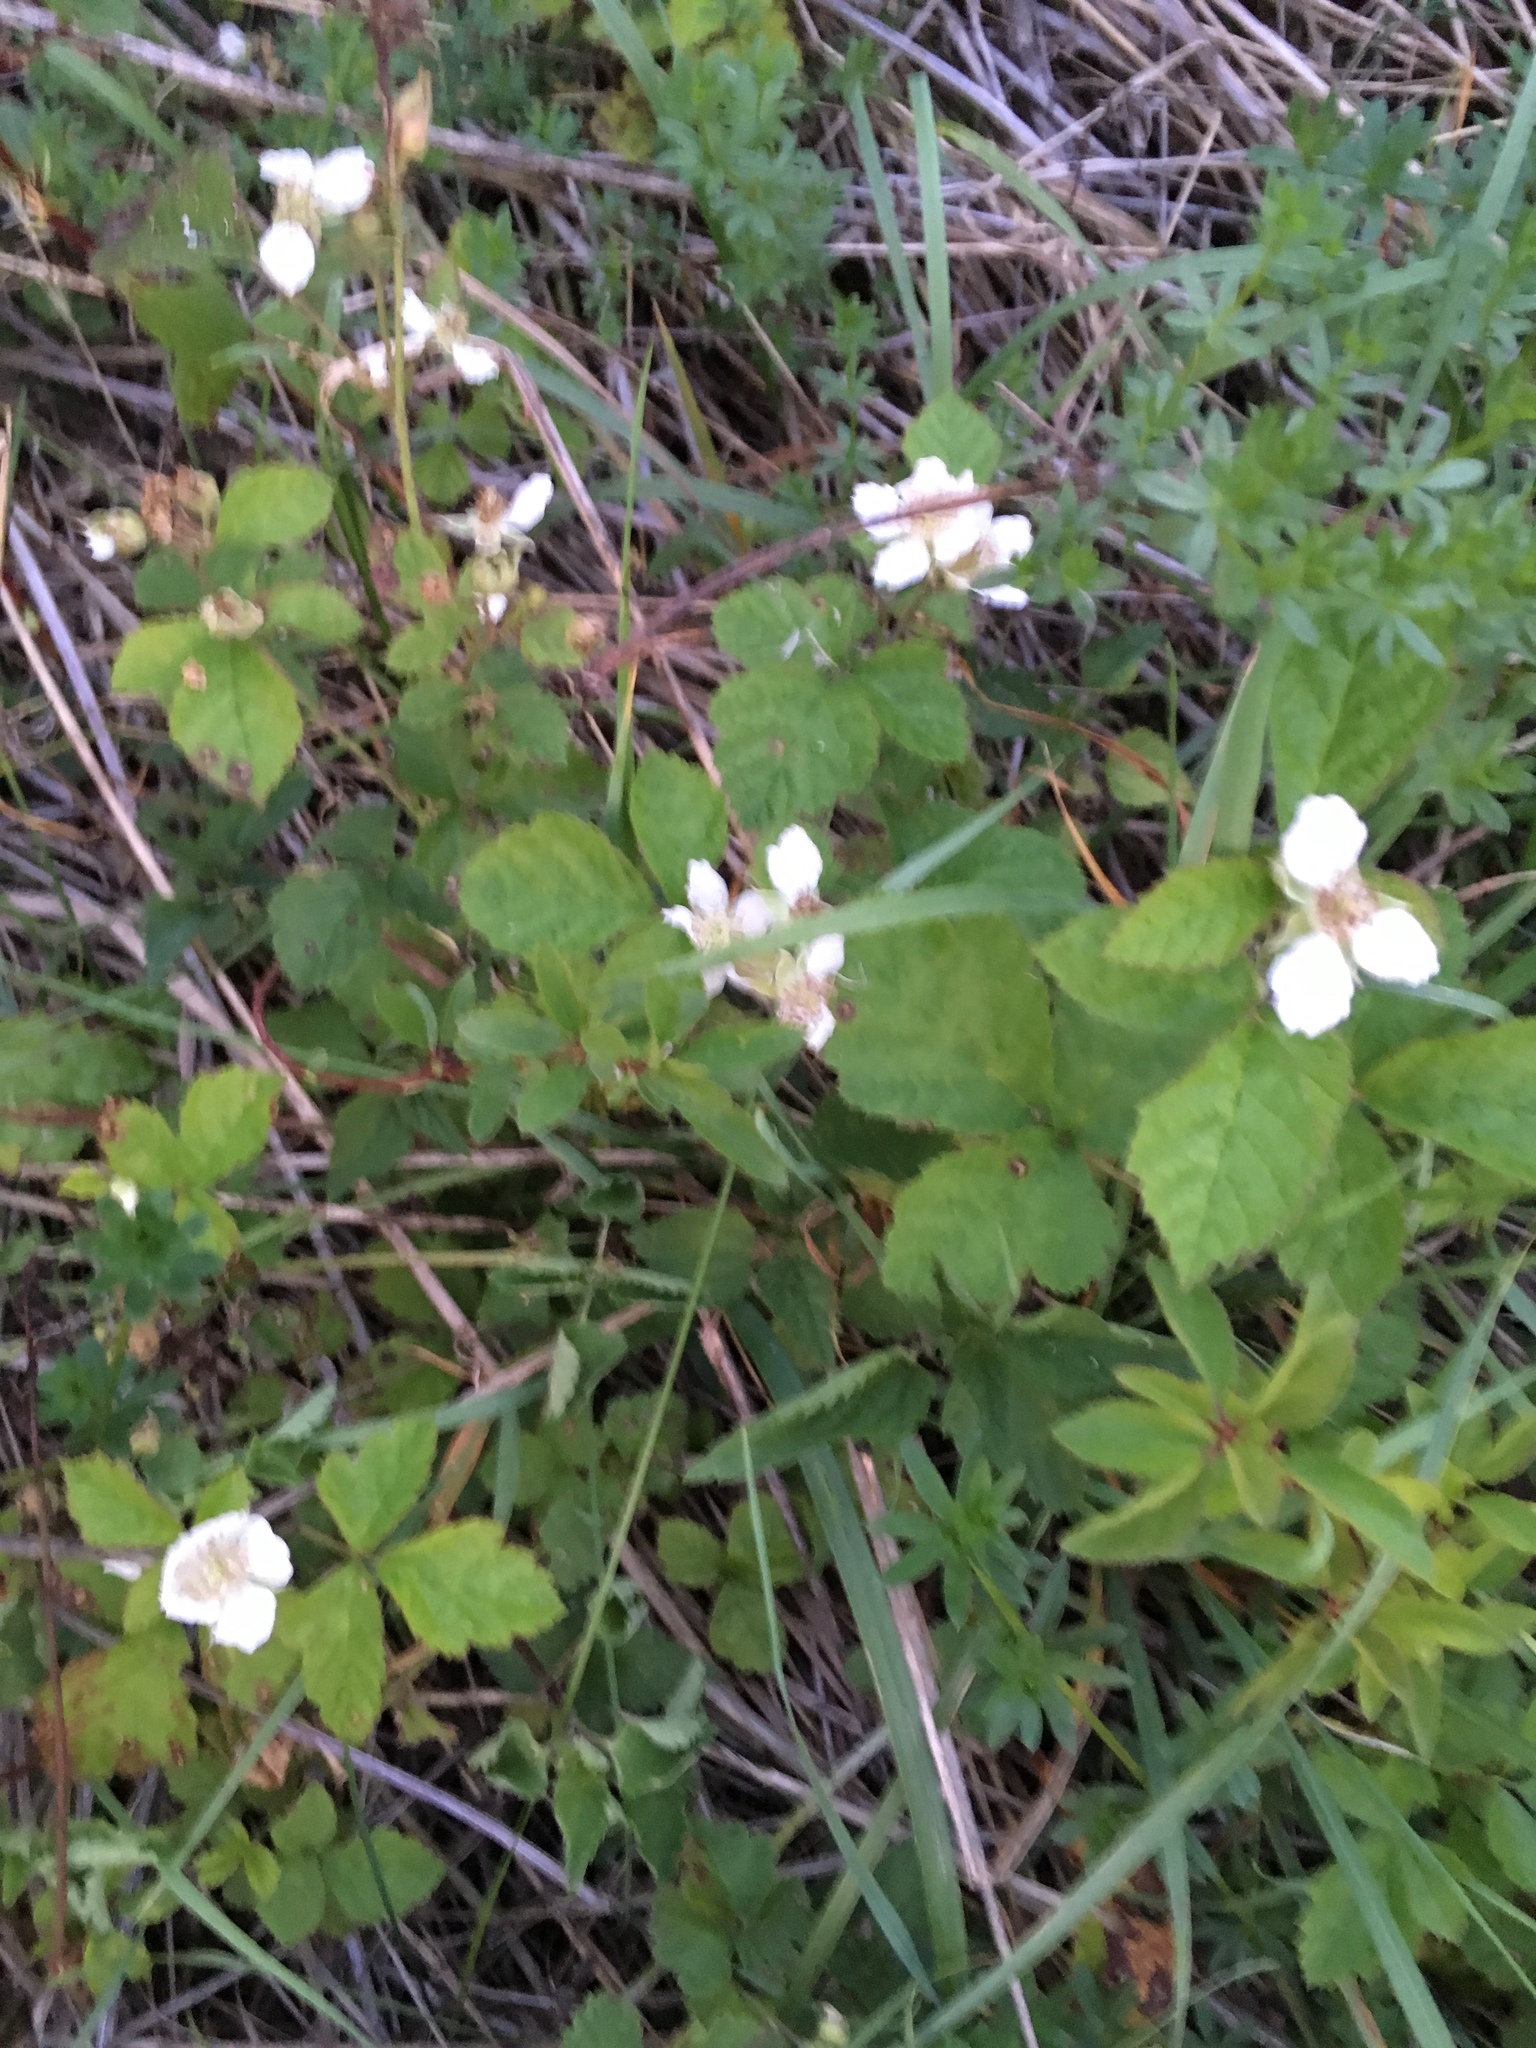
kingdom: Plantae
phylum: Tracheophyta
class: Magnoliopsida
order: Rosales
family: Rosaceae
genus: Rubus
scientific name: Rubus flagellaris
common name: American dewberry
